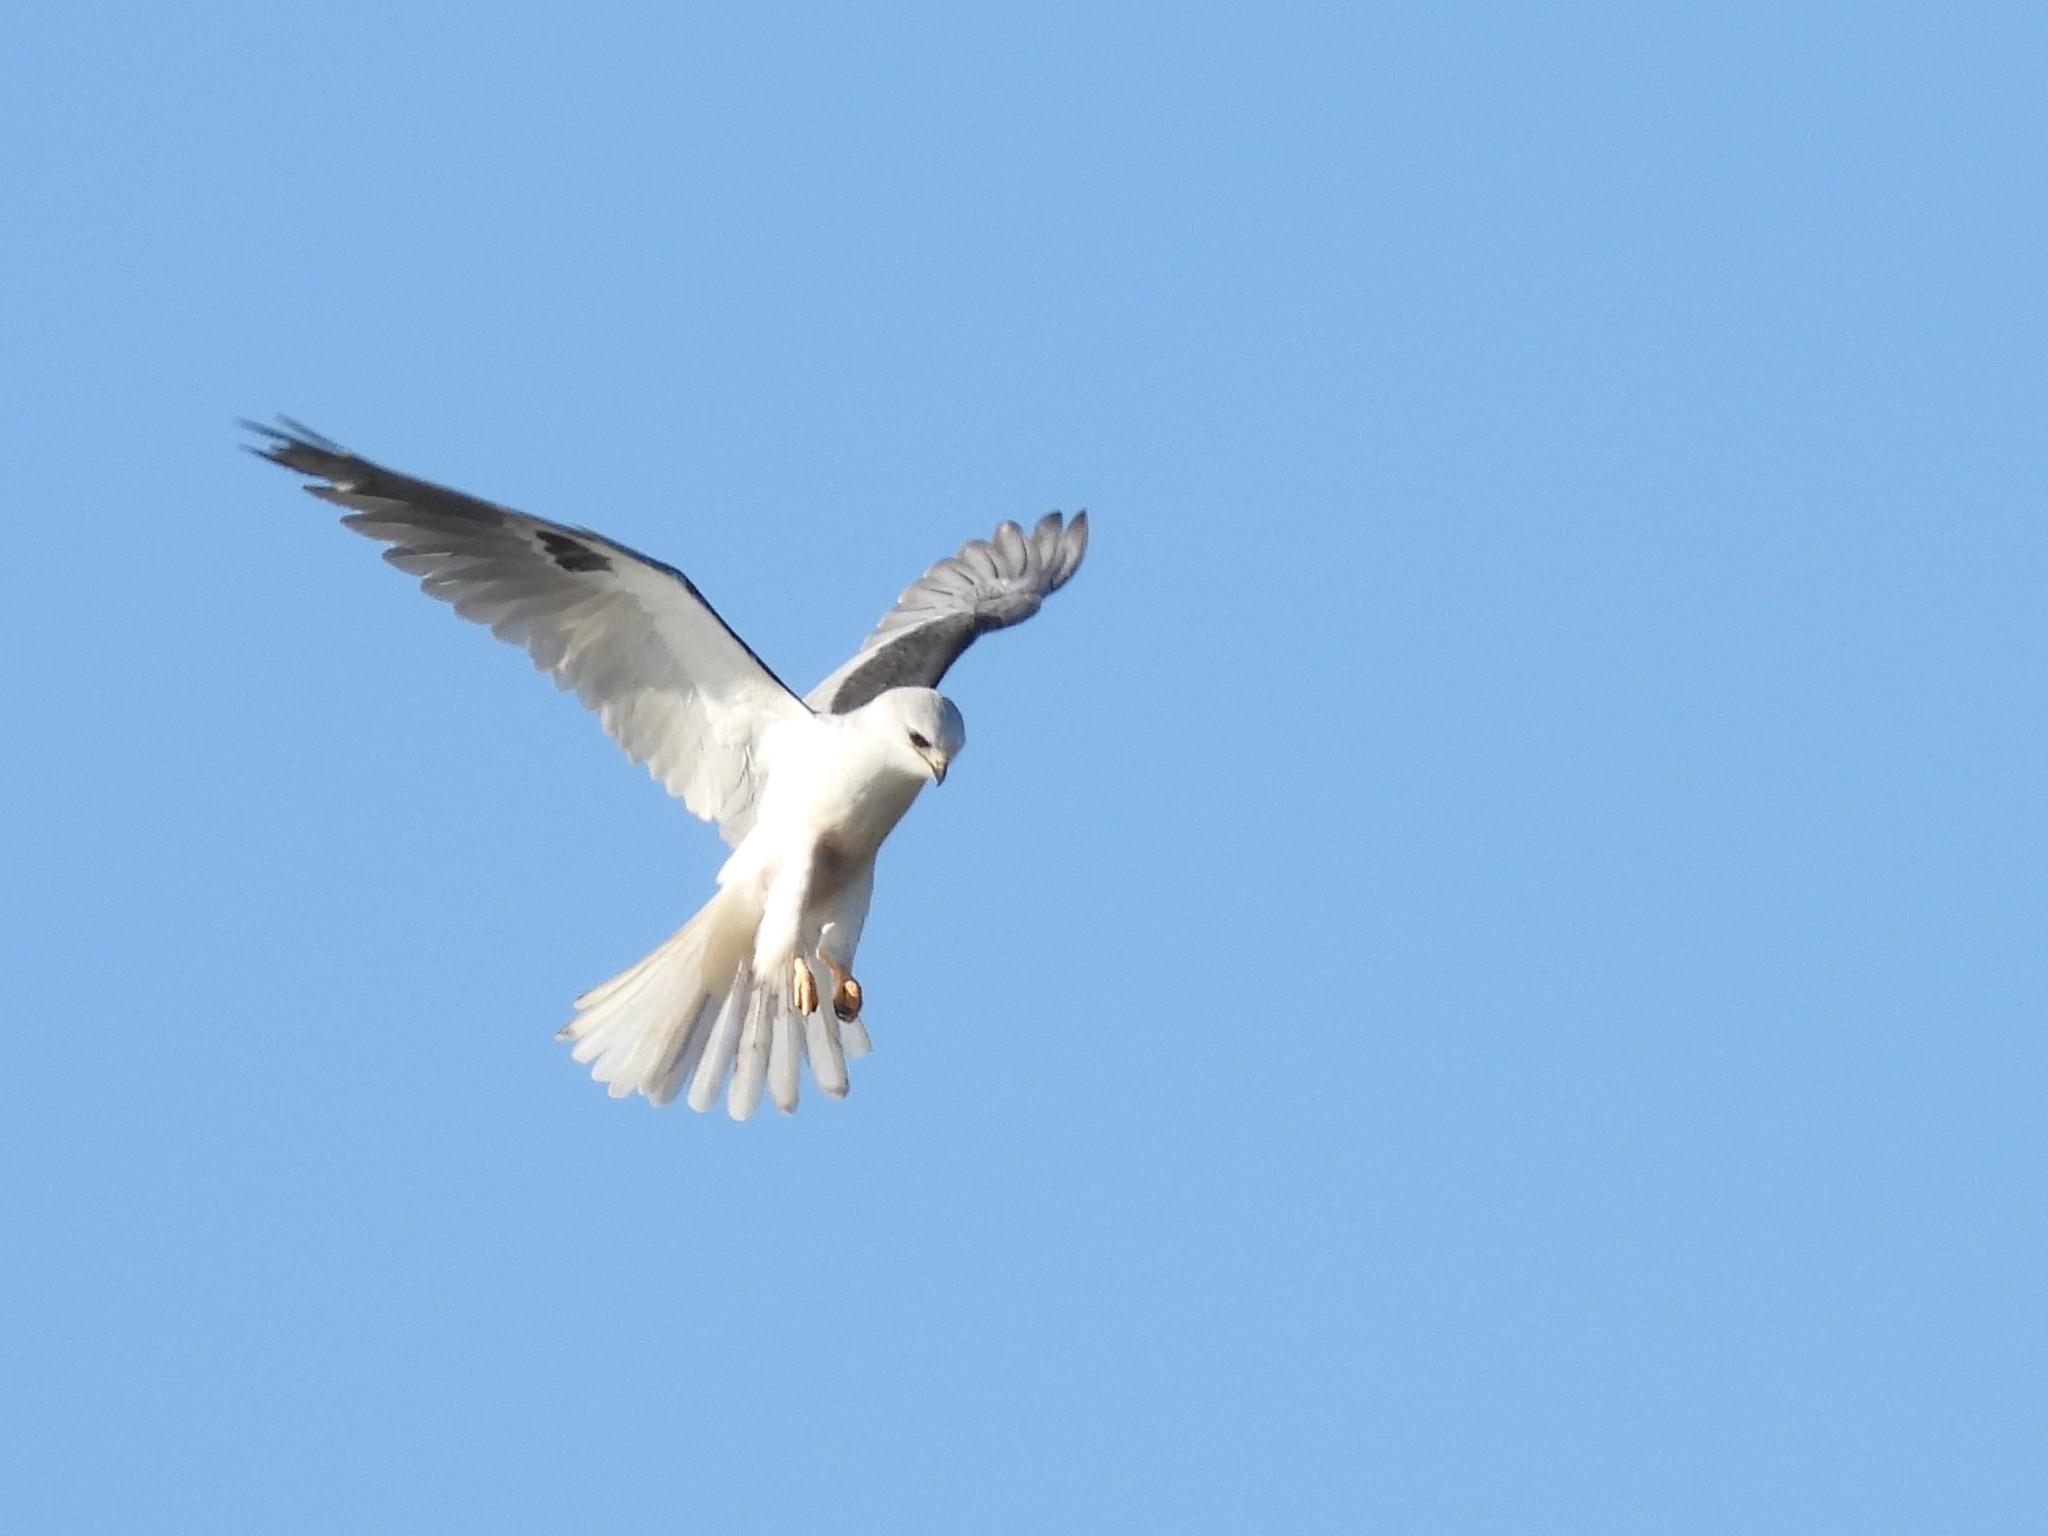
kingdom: Animalia
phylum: Chordata
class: Aves
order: Accipitriformes
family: Accipitridae
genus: Elanus
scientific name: Elanus leucurus
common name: White-tailed kite
